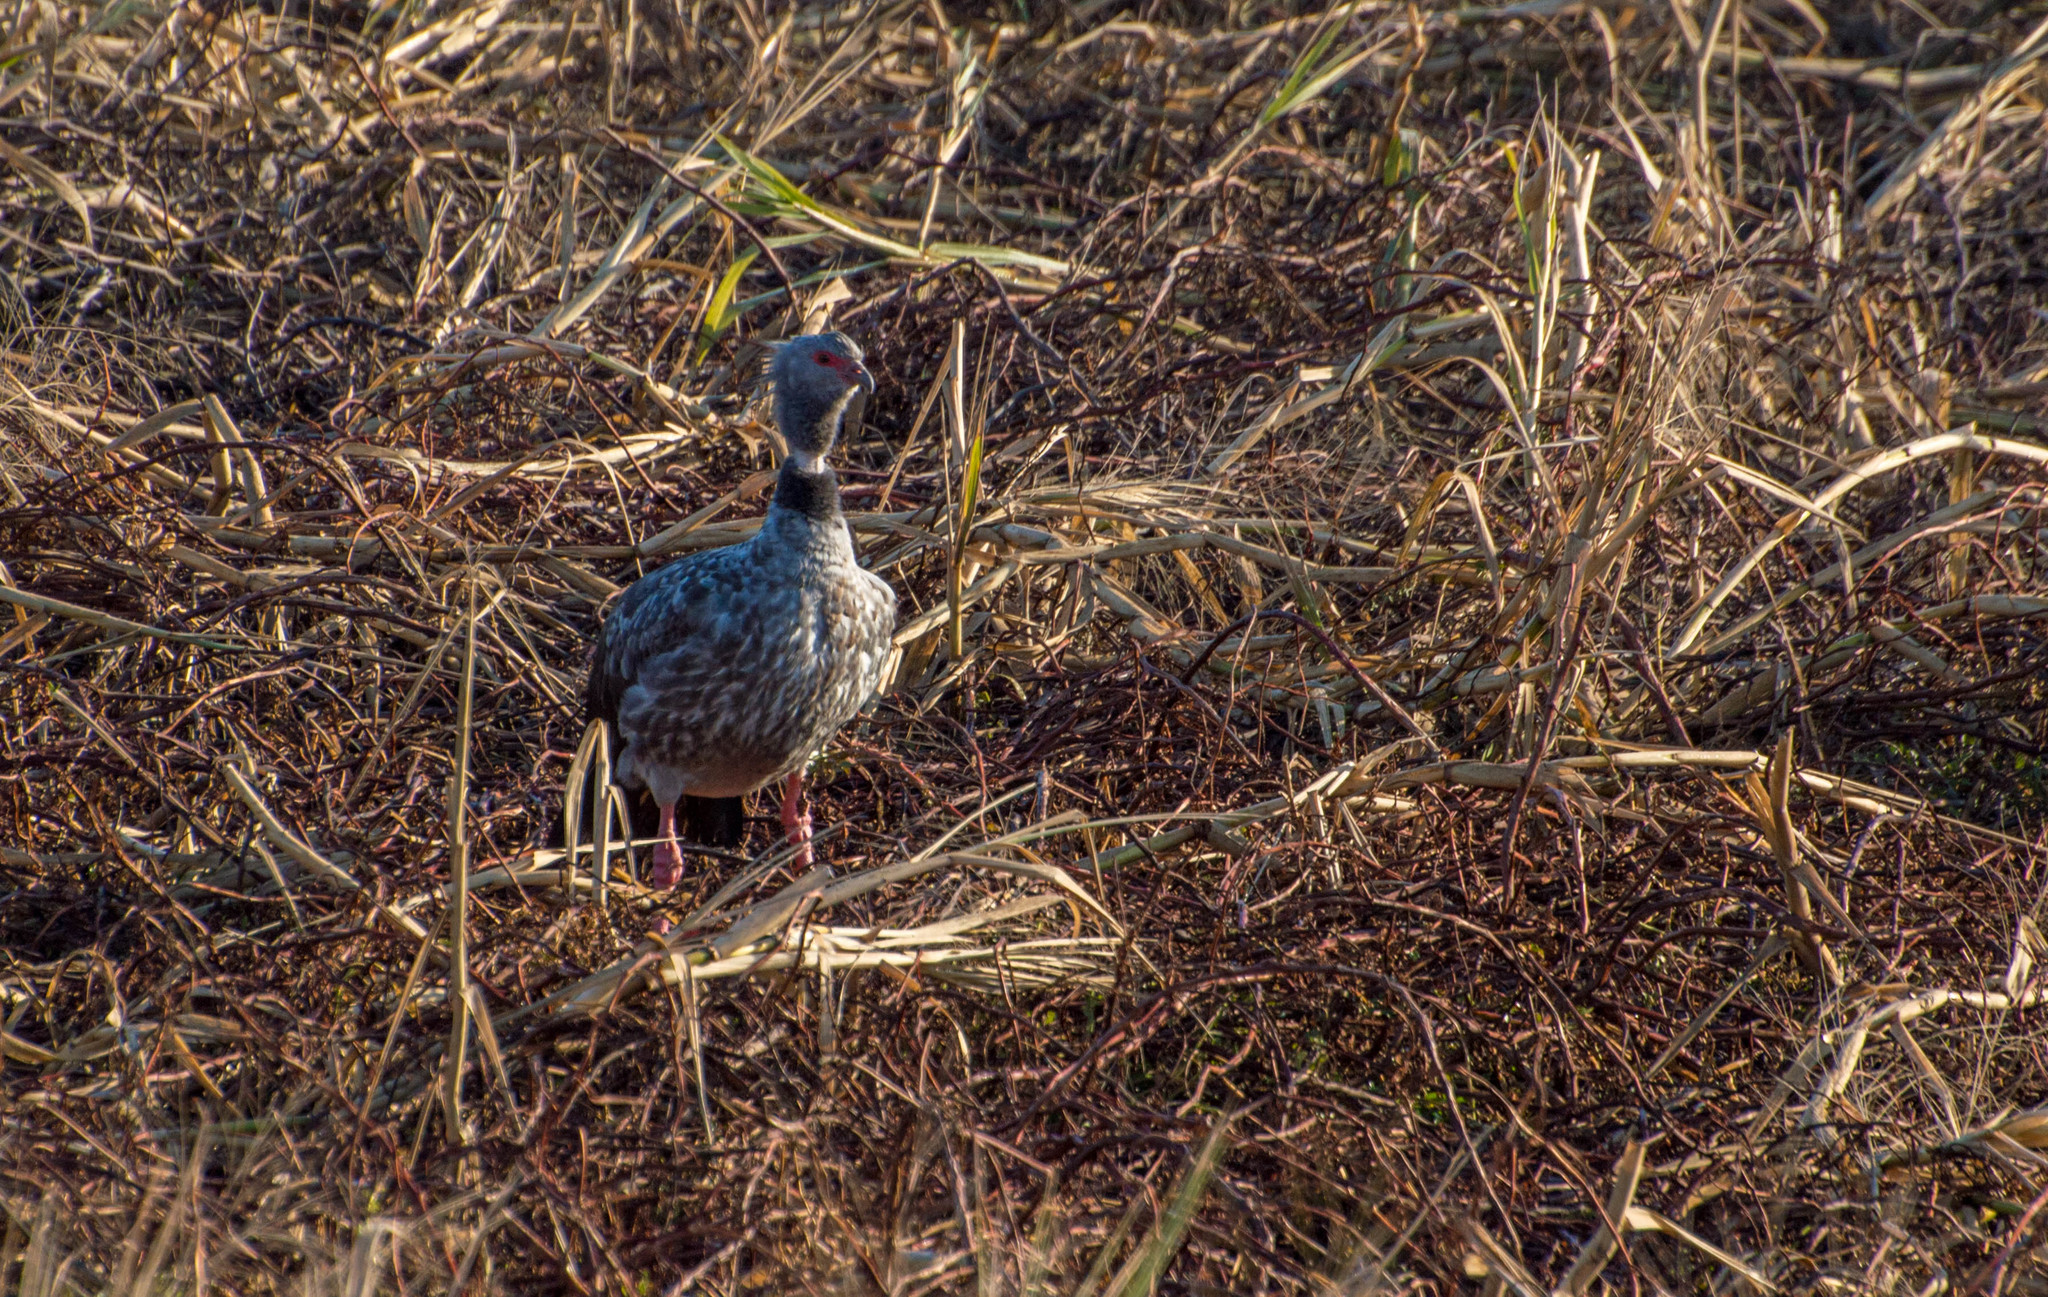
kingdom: Animalia
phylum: Chordata
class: Aves
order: Anseriformes
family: Anhimidae
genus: Chauna
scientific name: Chauna torquata
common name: Southern screamer
